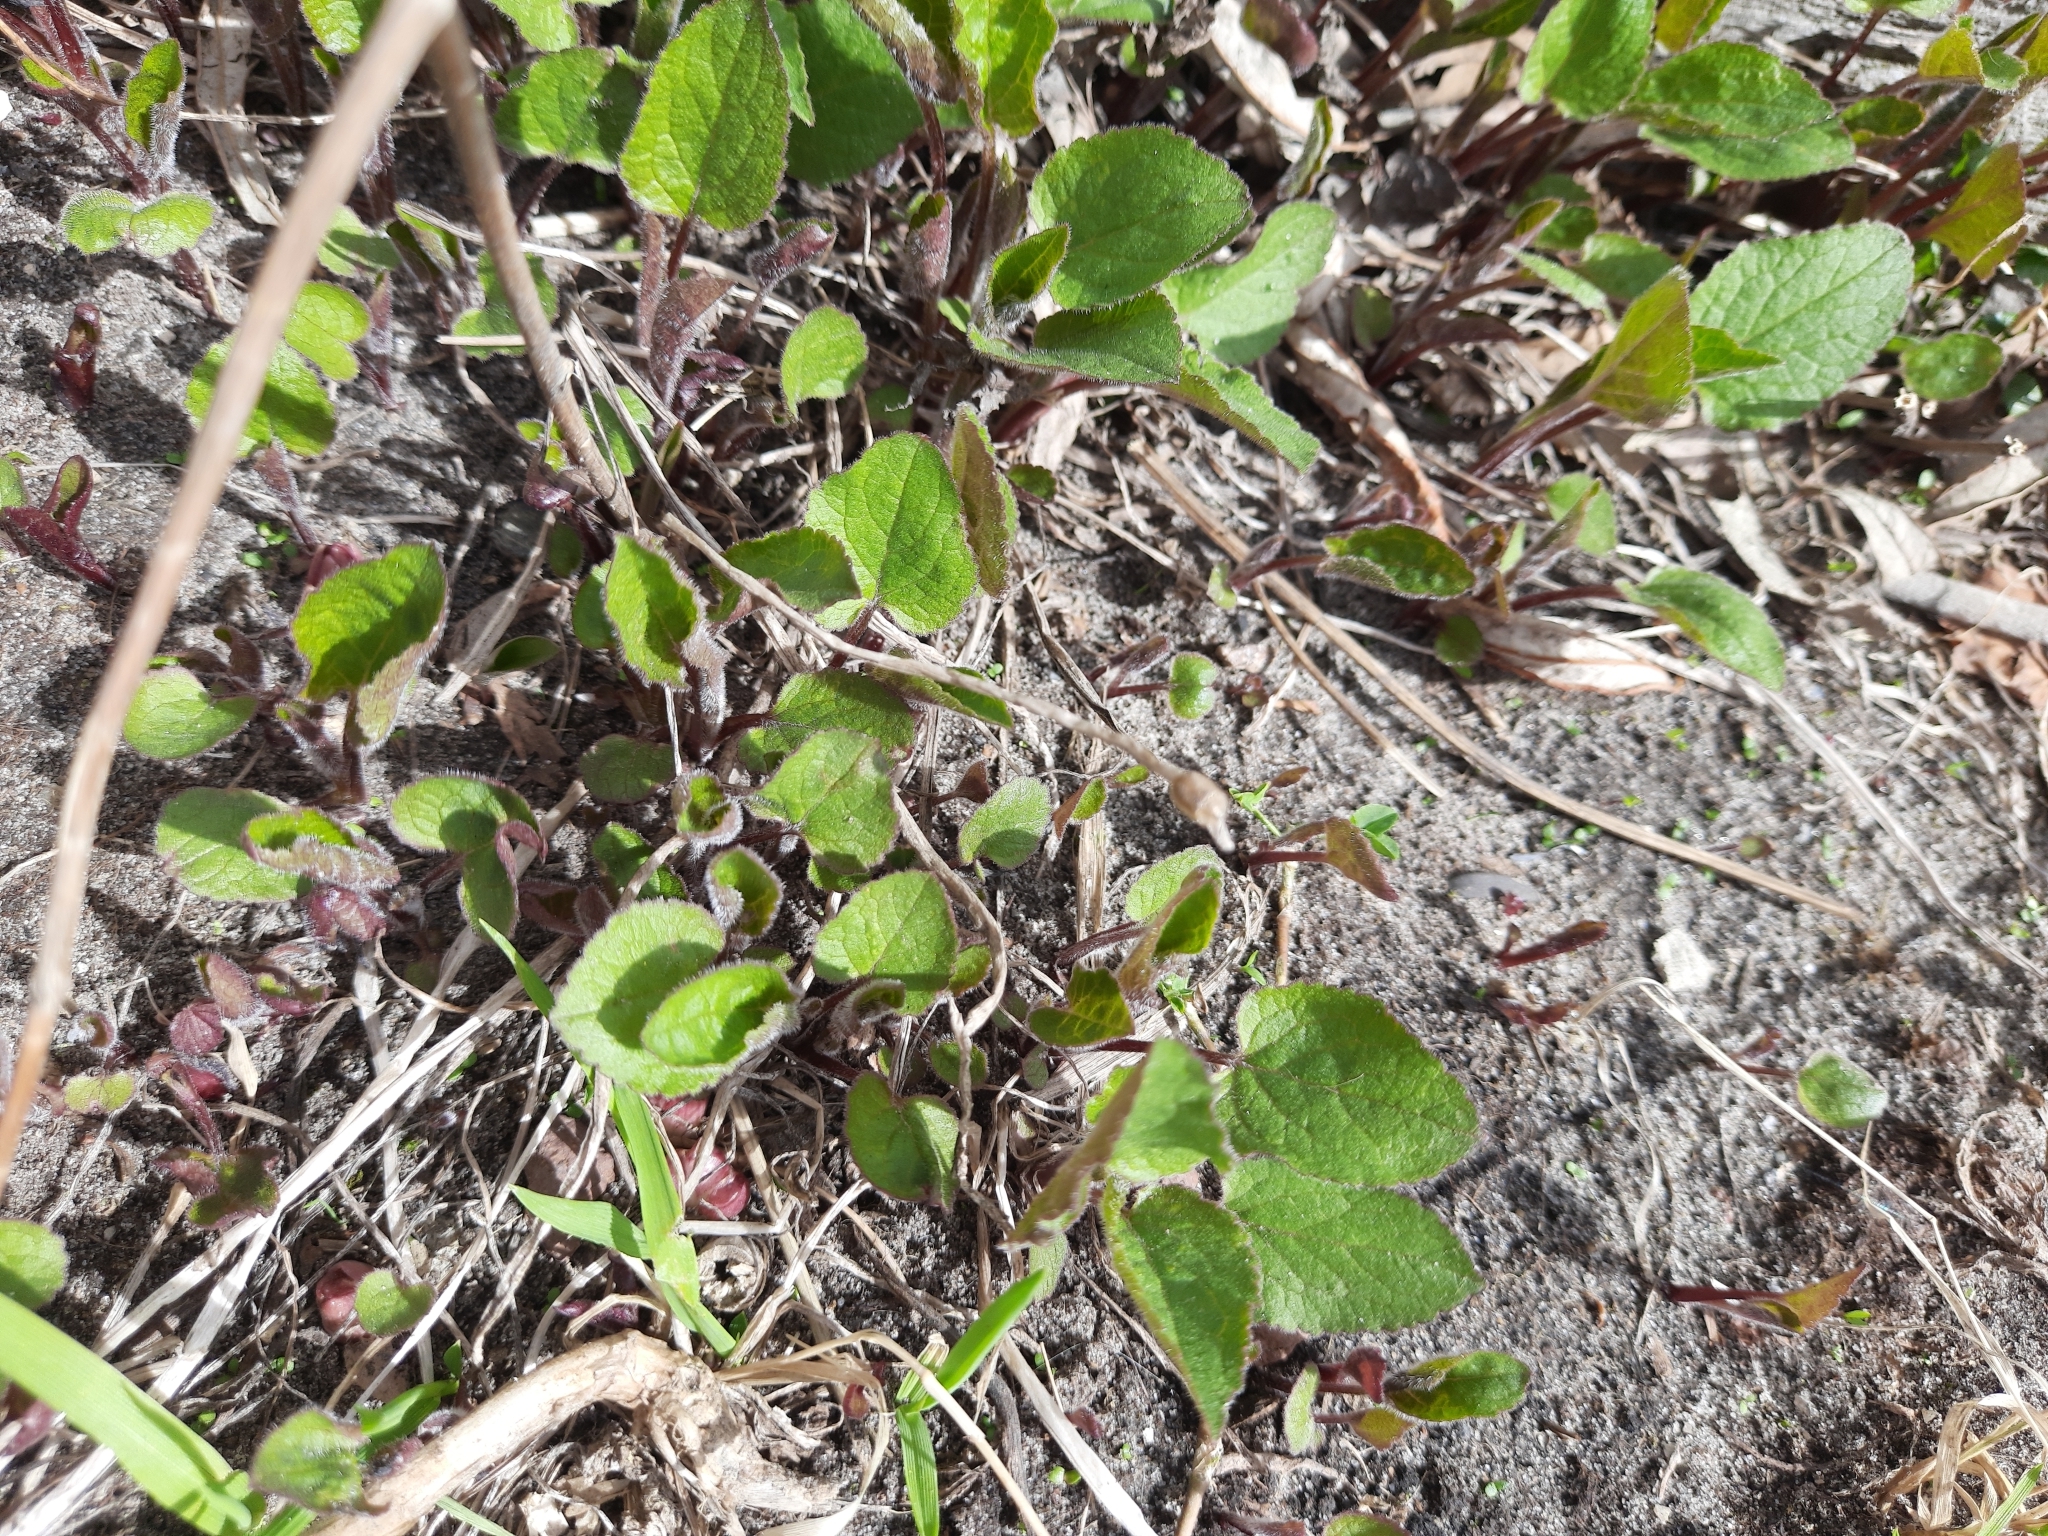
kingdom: Plantae
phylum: Tracheophyta
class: Magnoliopsida
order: Asterales
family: Campanulaceae
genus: Campanula
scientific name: Campanula rapunculoides
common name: Creeping bellflower
